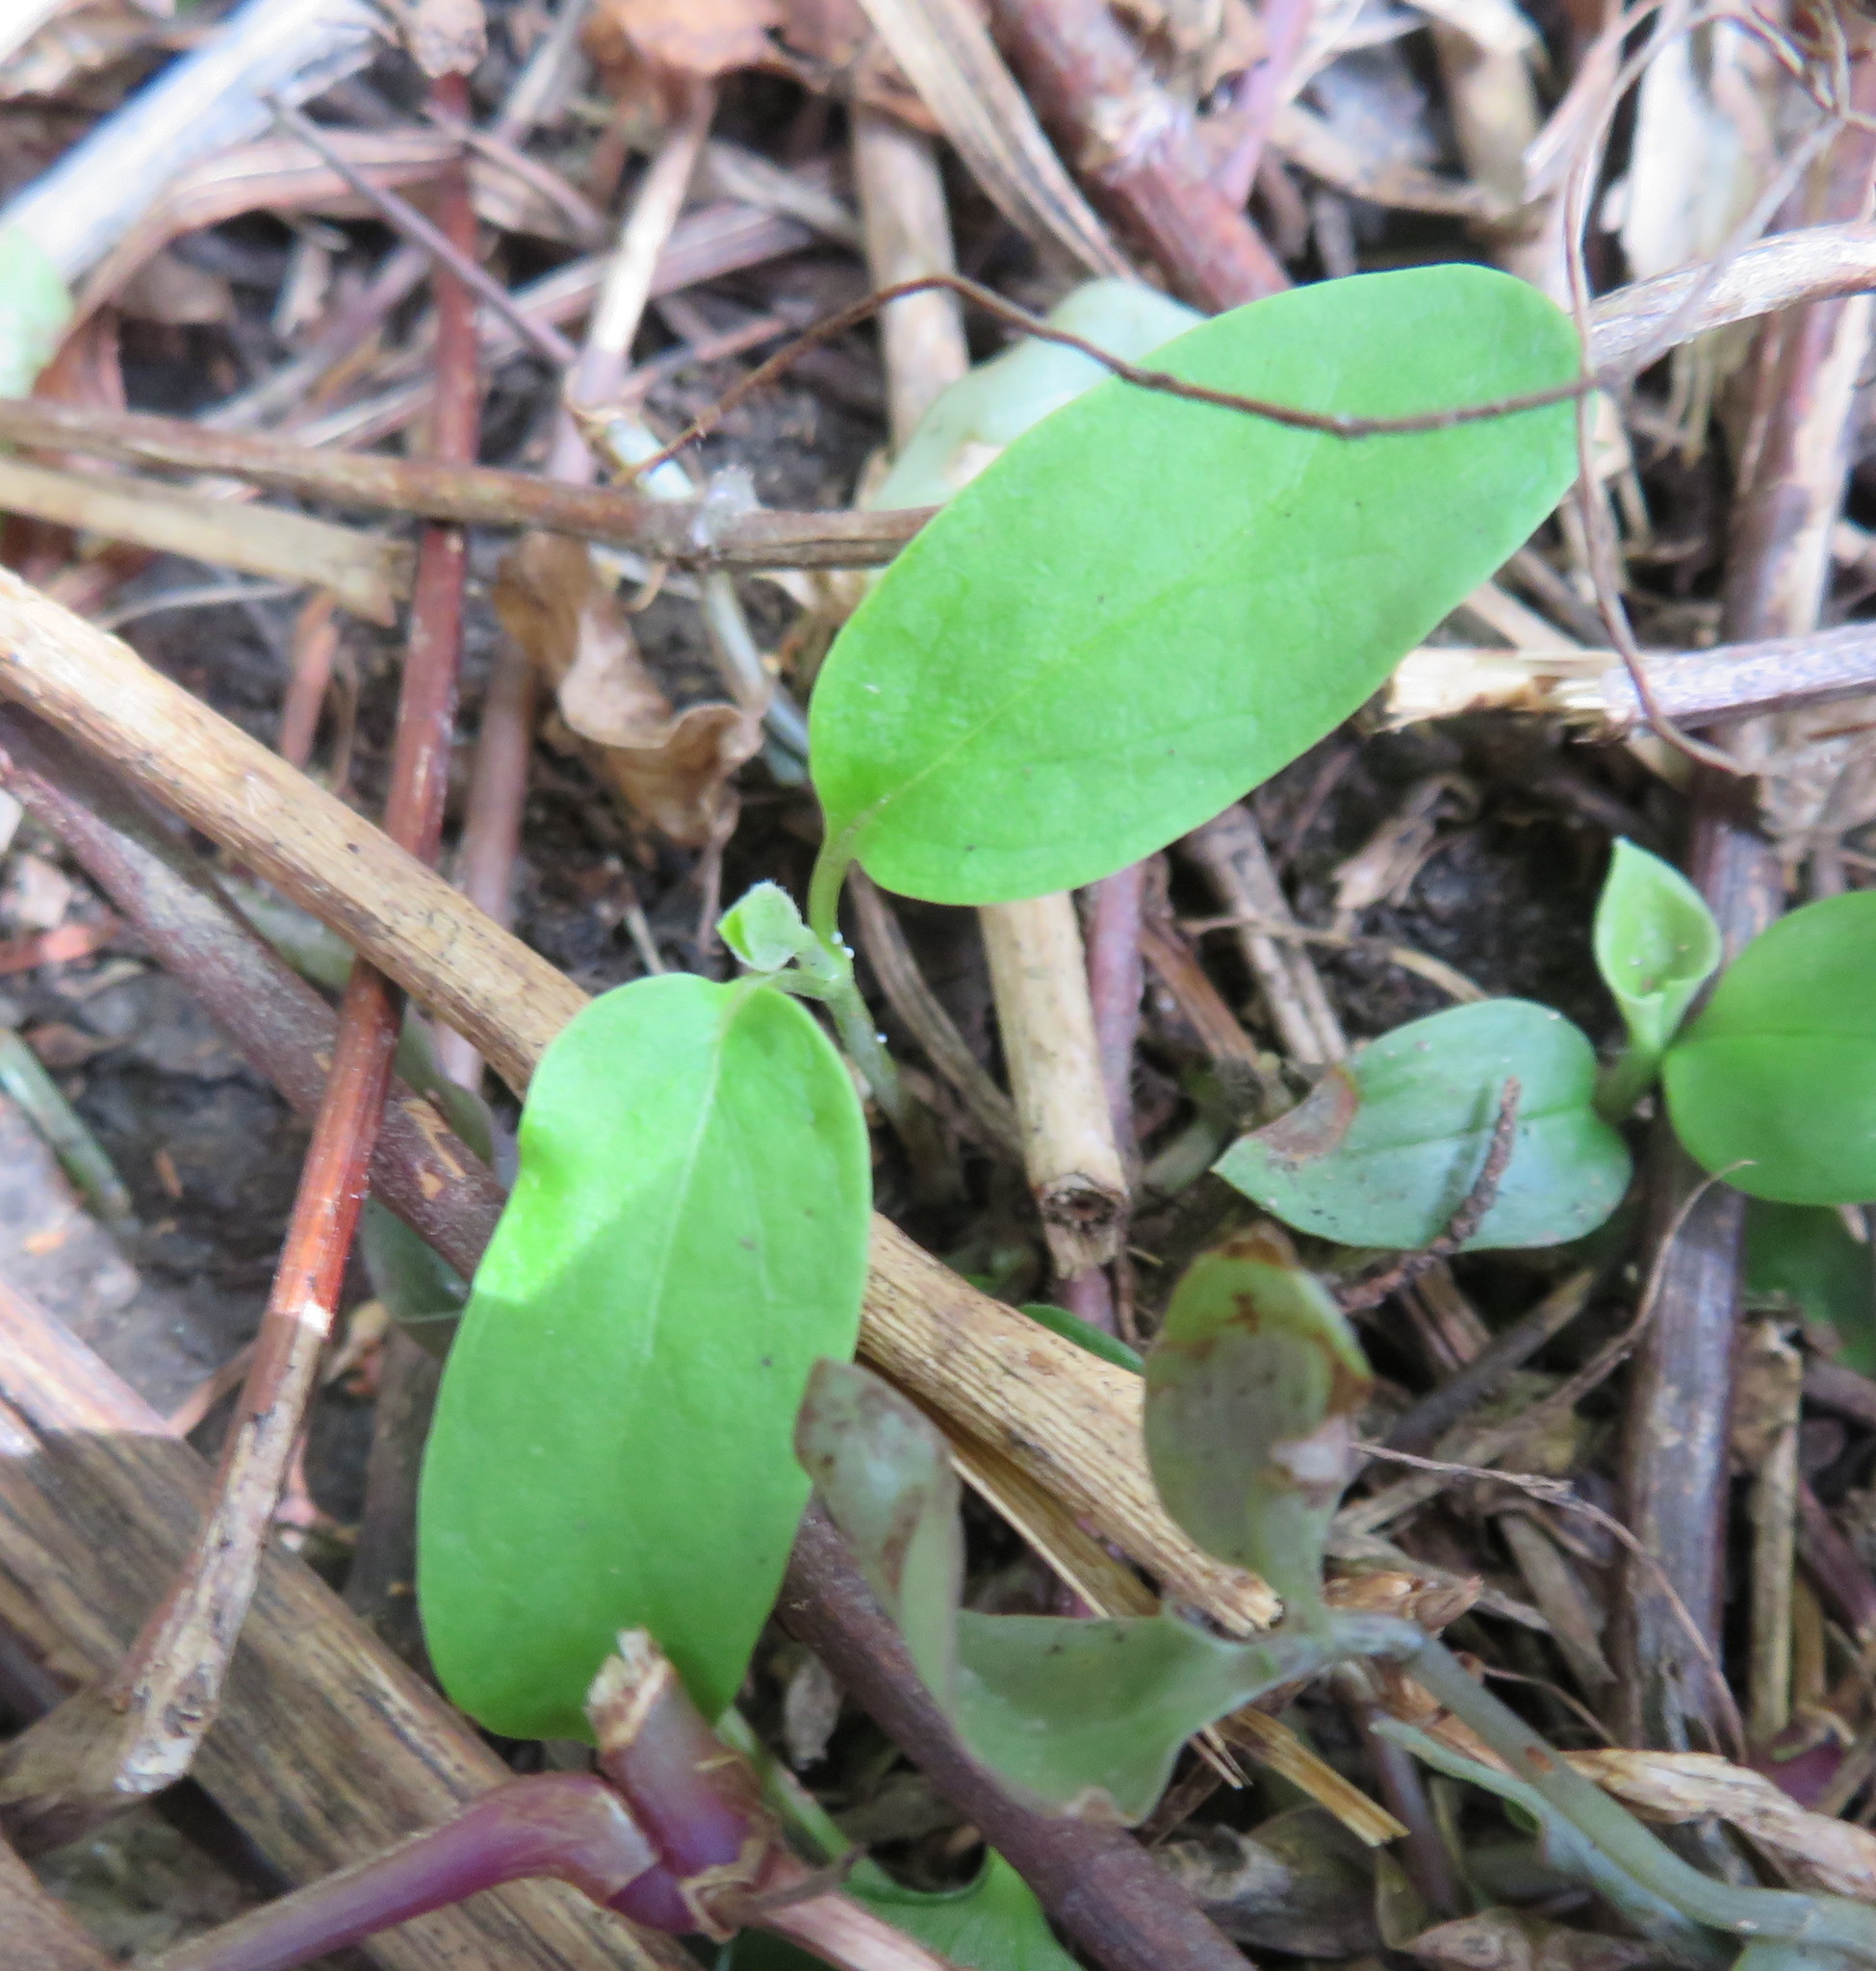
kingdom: Plantae
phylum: Tracheophyta
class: Magnoliopsida
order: Gentianales
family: Apocynaceae
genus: Araujia
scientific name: Araujia sericifera
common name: White bladderflower
